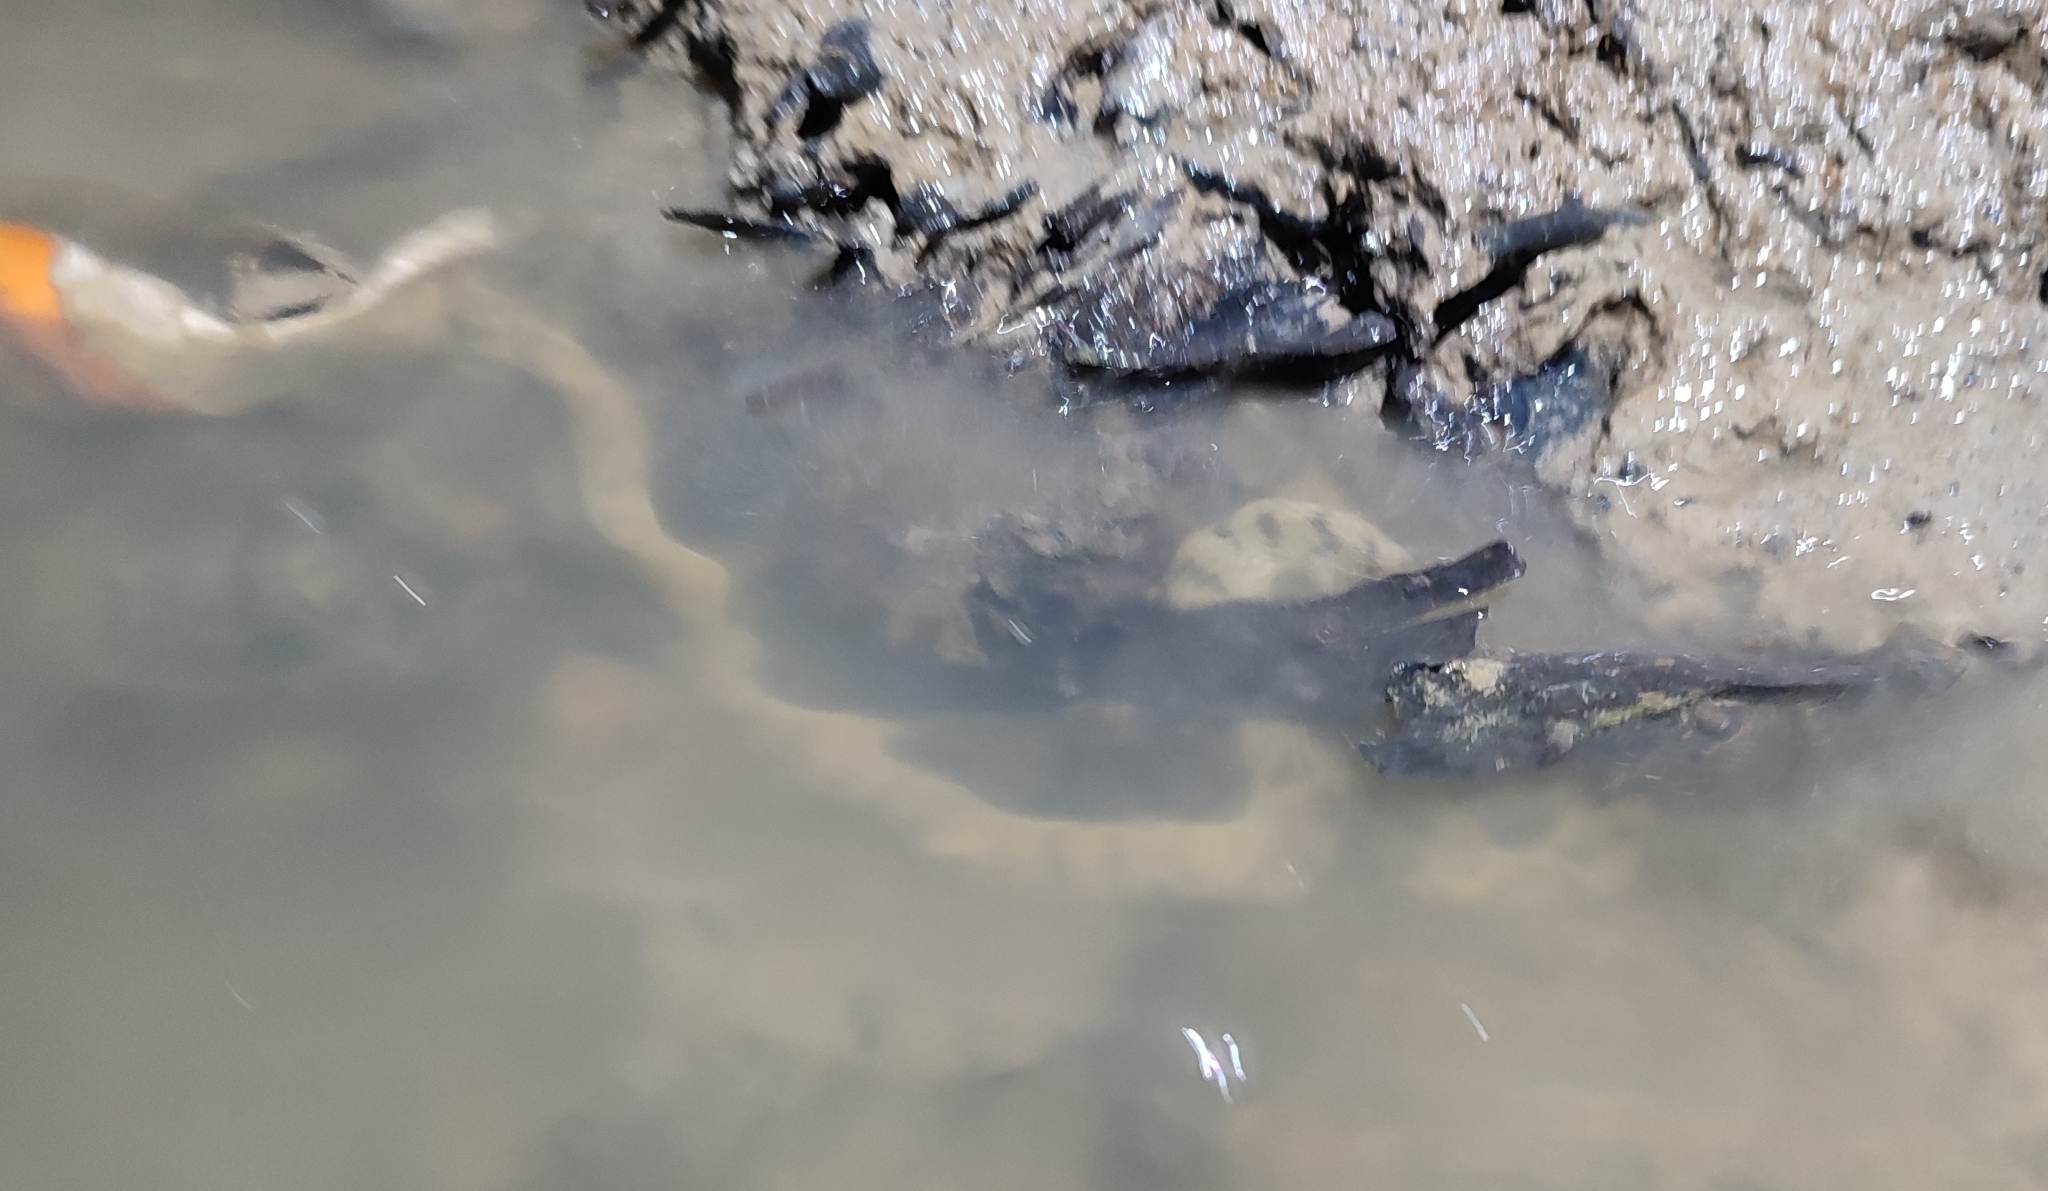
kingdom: Animalia
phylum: Chordata
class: Squamata
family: Homalopsidae
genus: Cerberus
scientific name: Cerberus schneiderii
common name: Southeast asian bockadam
